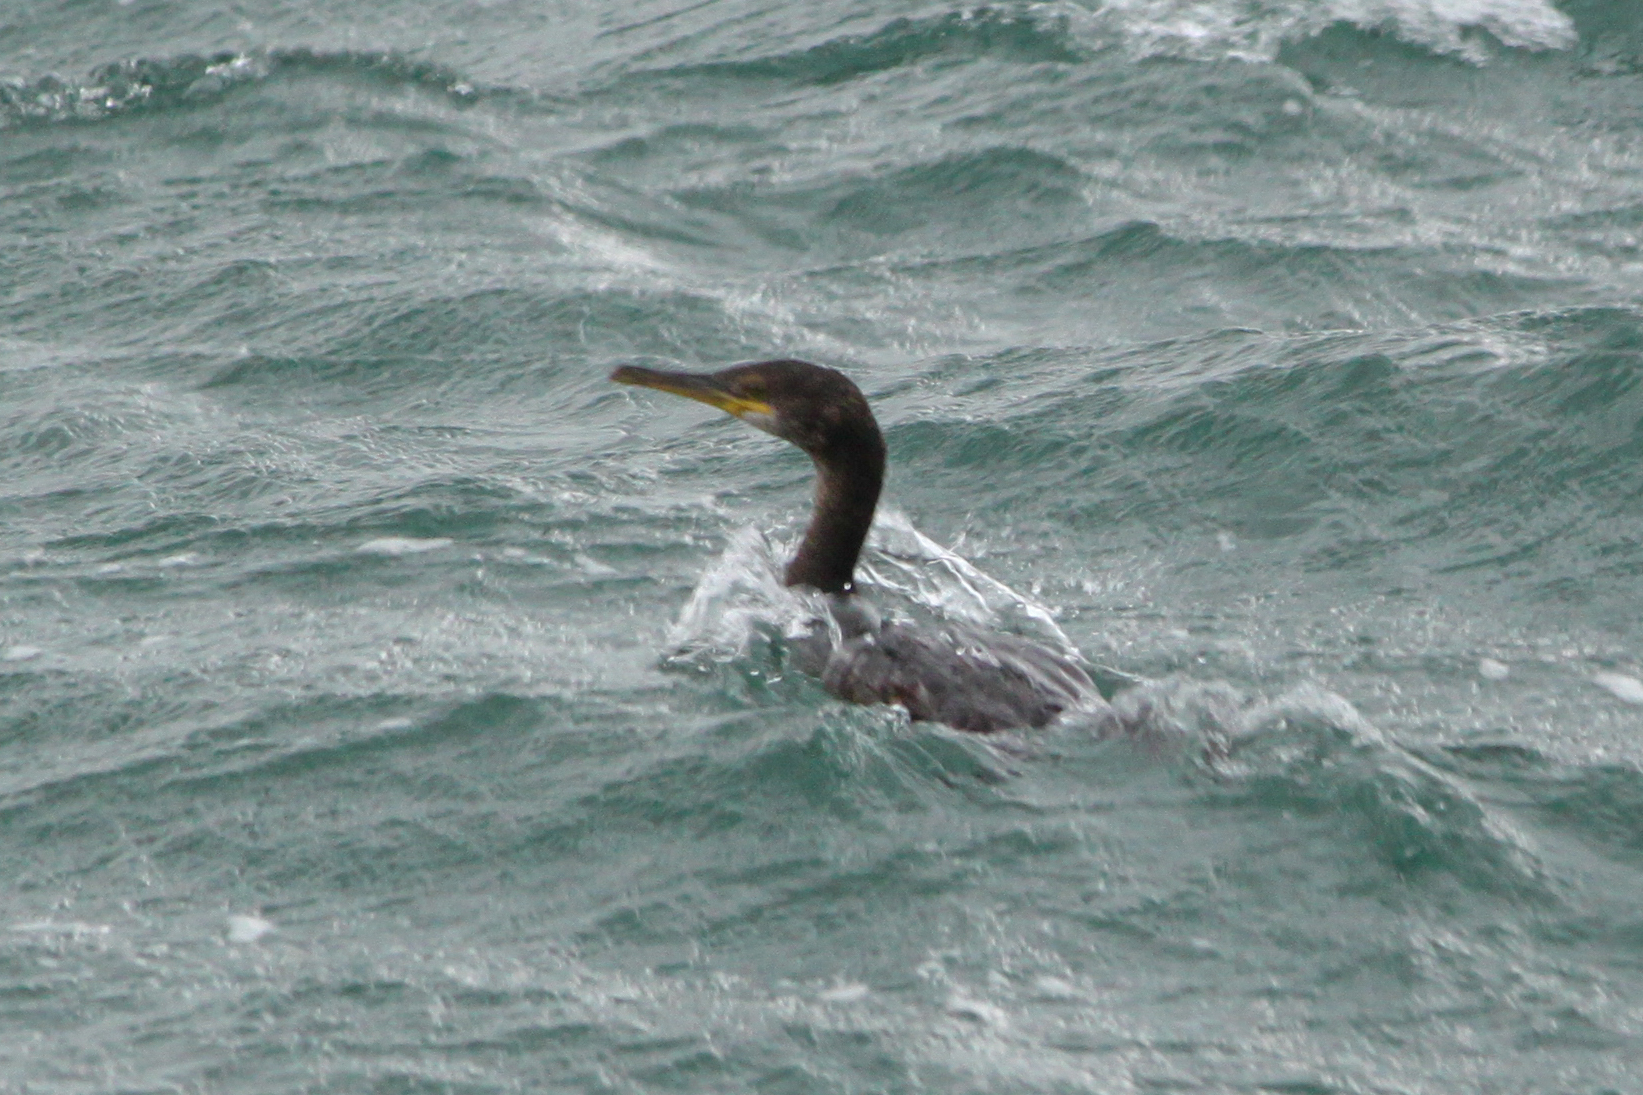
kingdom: Animalia
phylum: Chordata
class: Aves
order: Suliformes
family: Phalacrocoracidae
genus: Phalacrocorax
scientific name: Phalacrocorax aristotelis
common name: European shag
